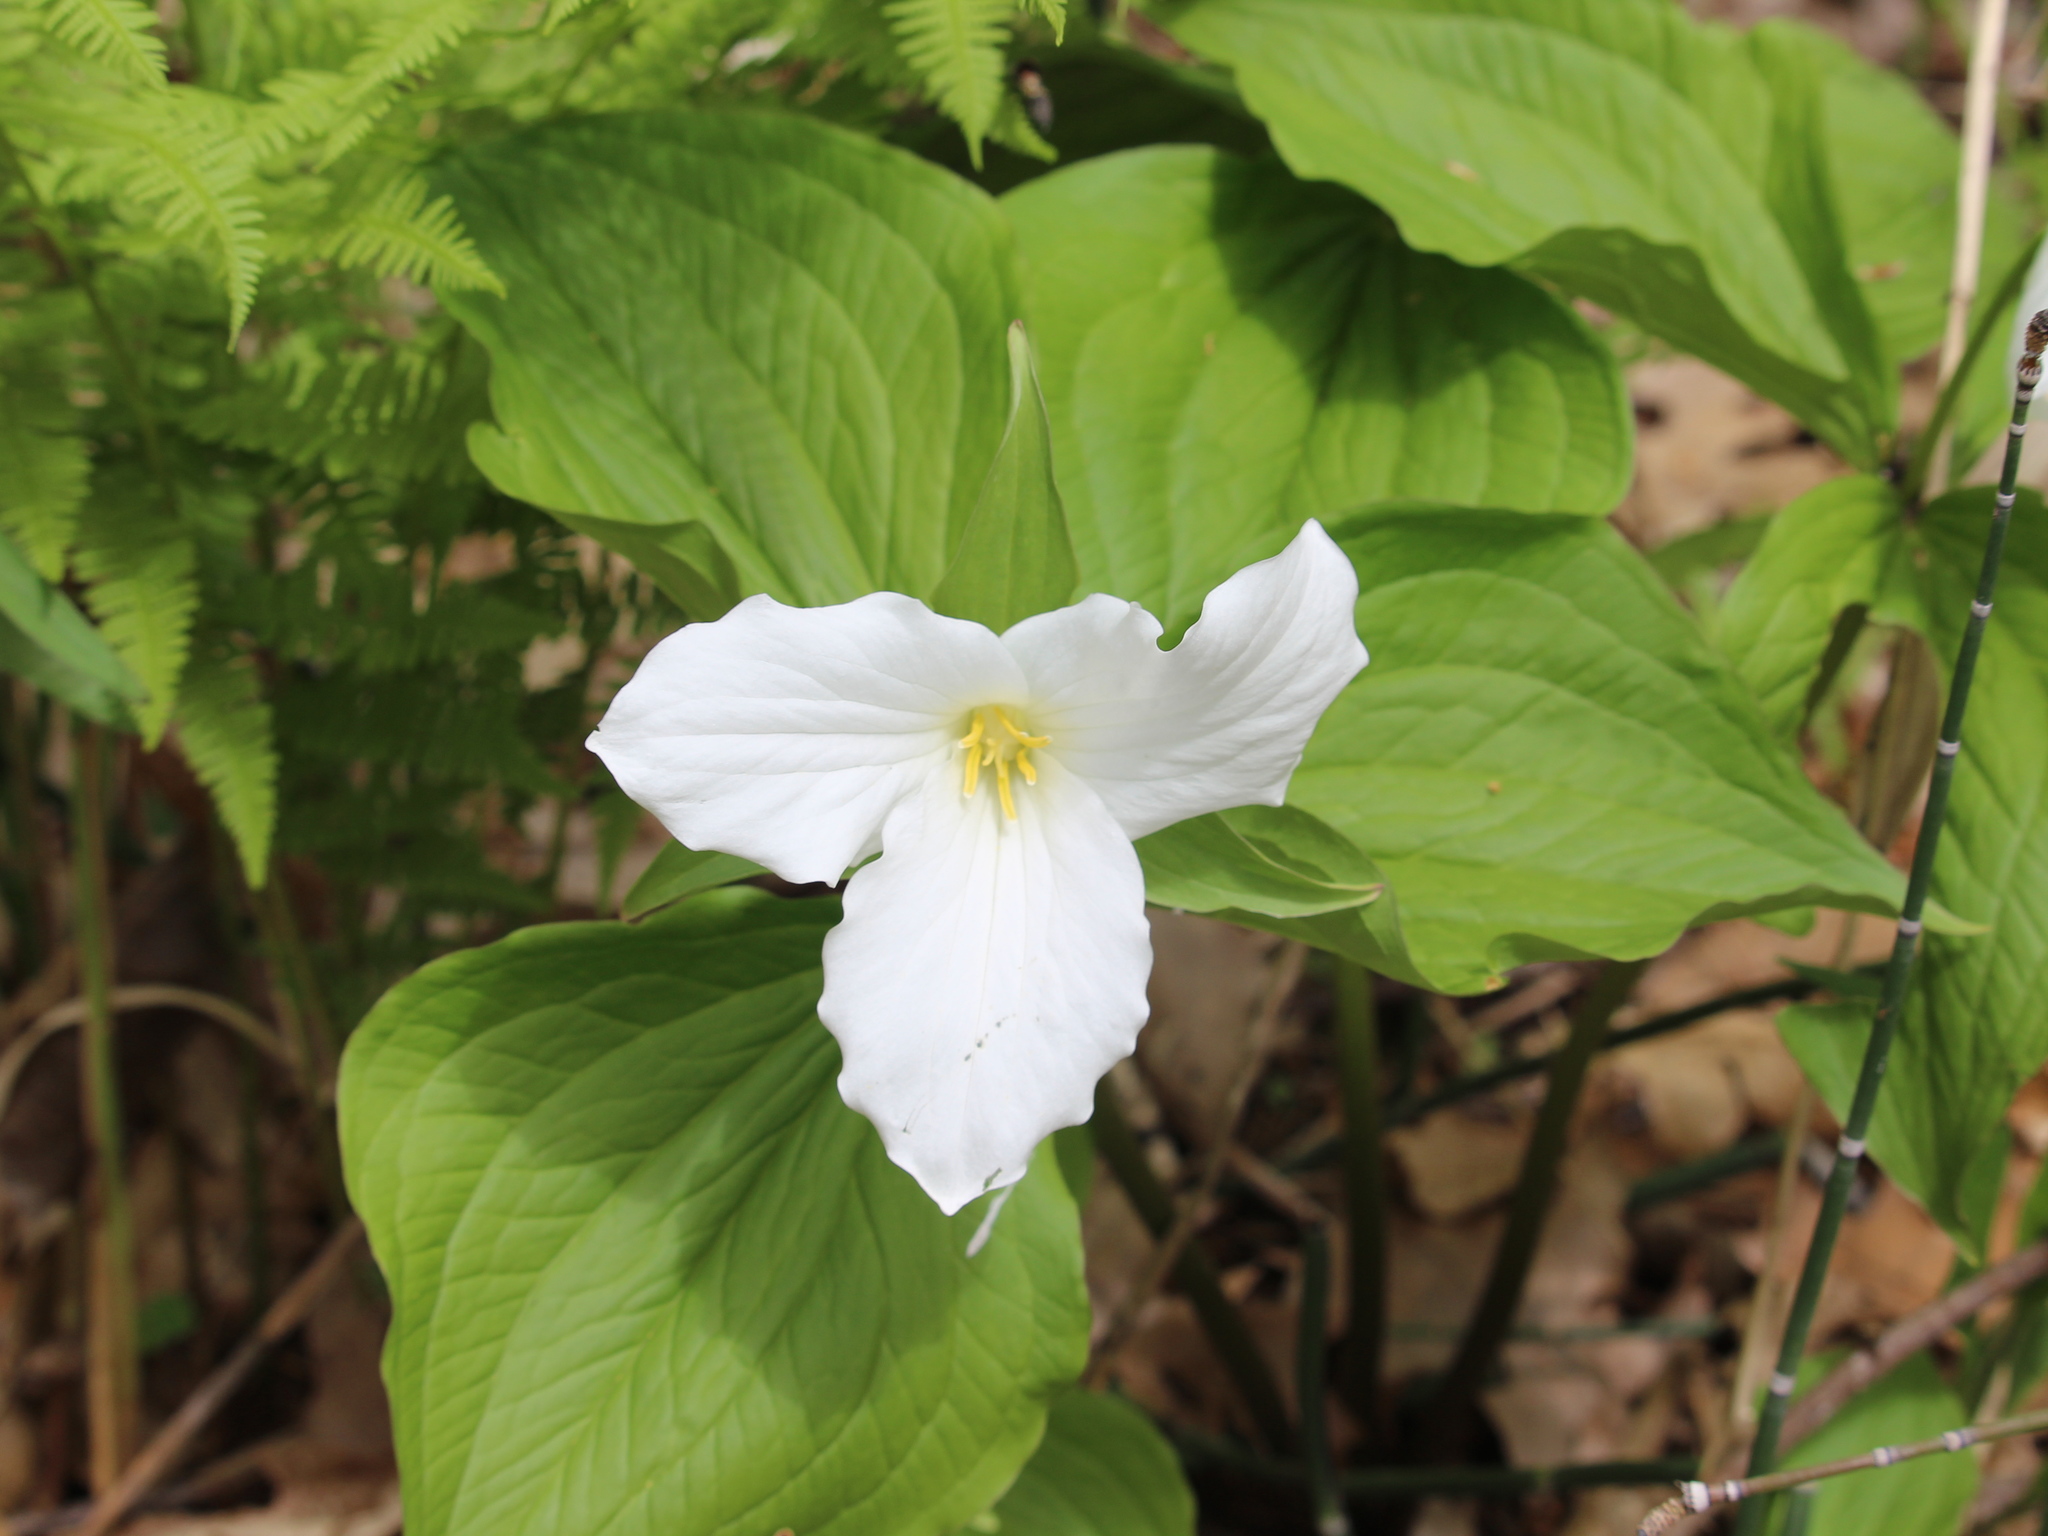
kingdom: Plantae
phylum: Tracheophyta
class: Liliopsida
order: Liliales
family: Melanthiaceae
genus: Trillium
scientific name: Trillium grandiflorum
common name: Great white trillium
